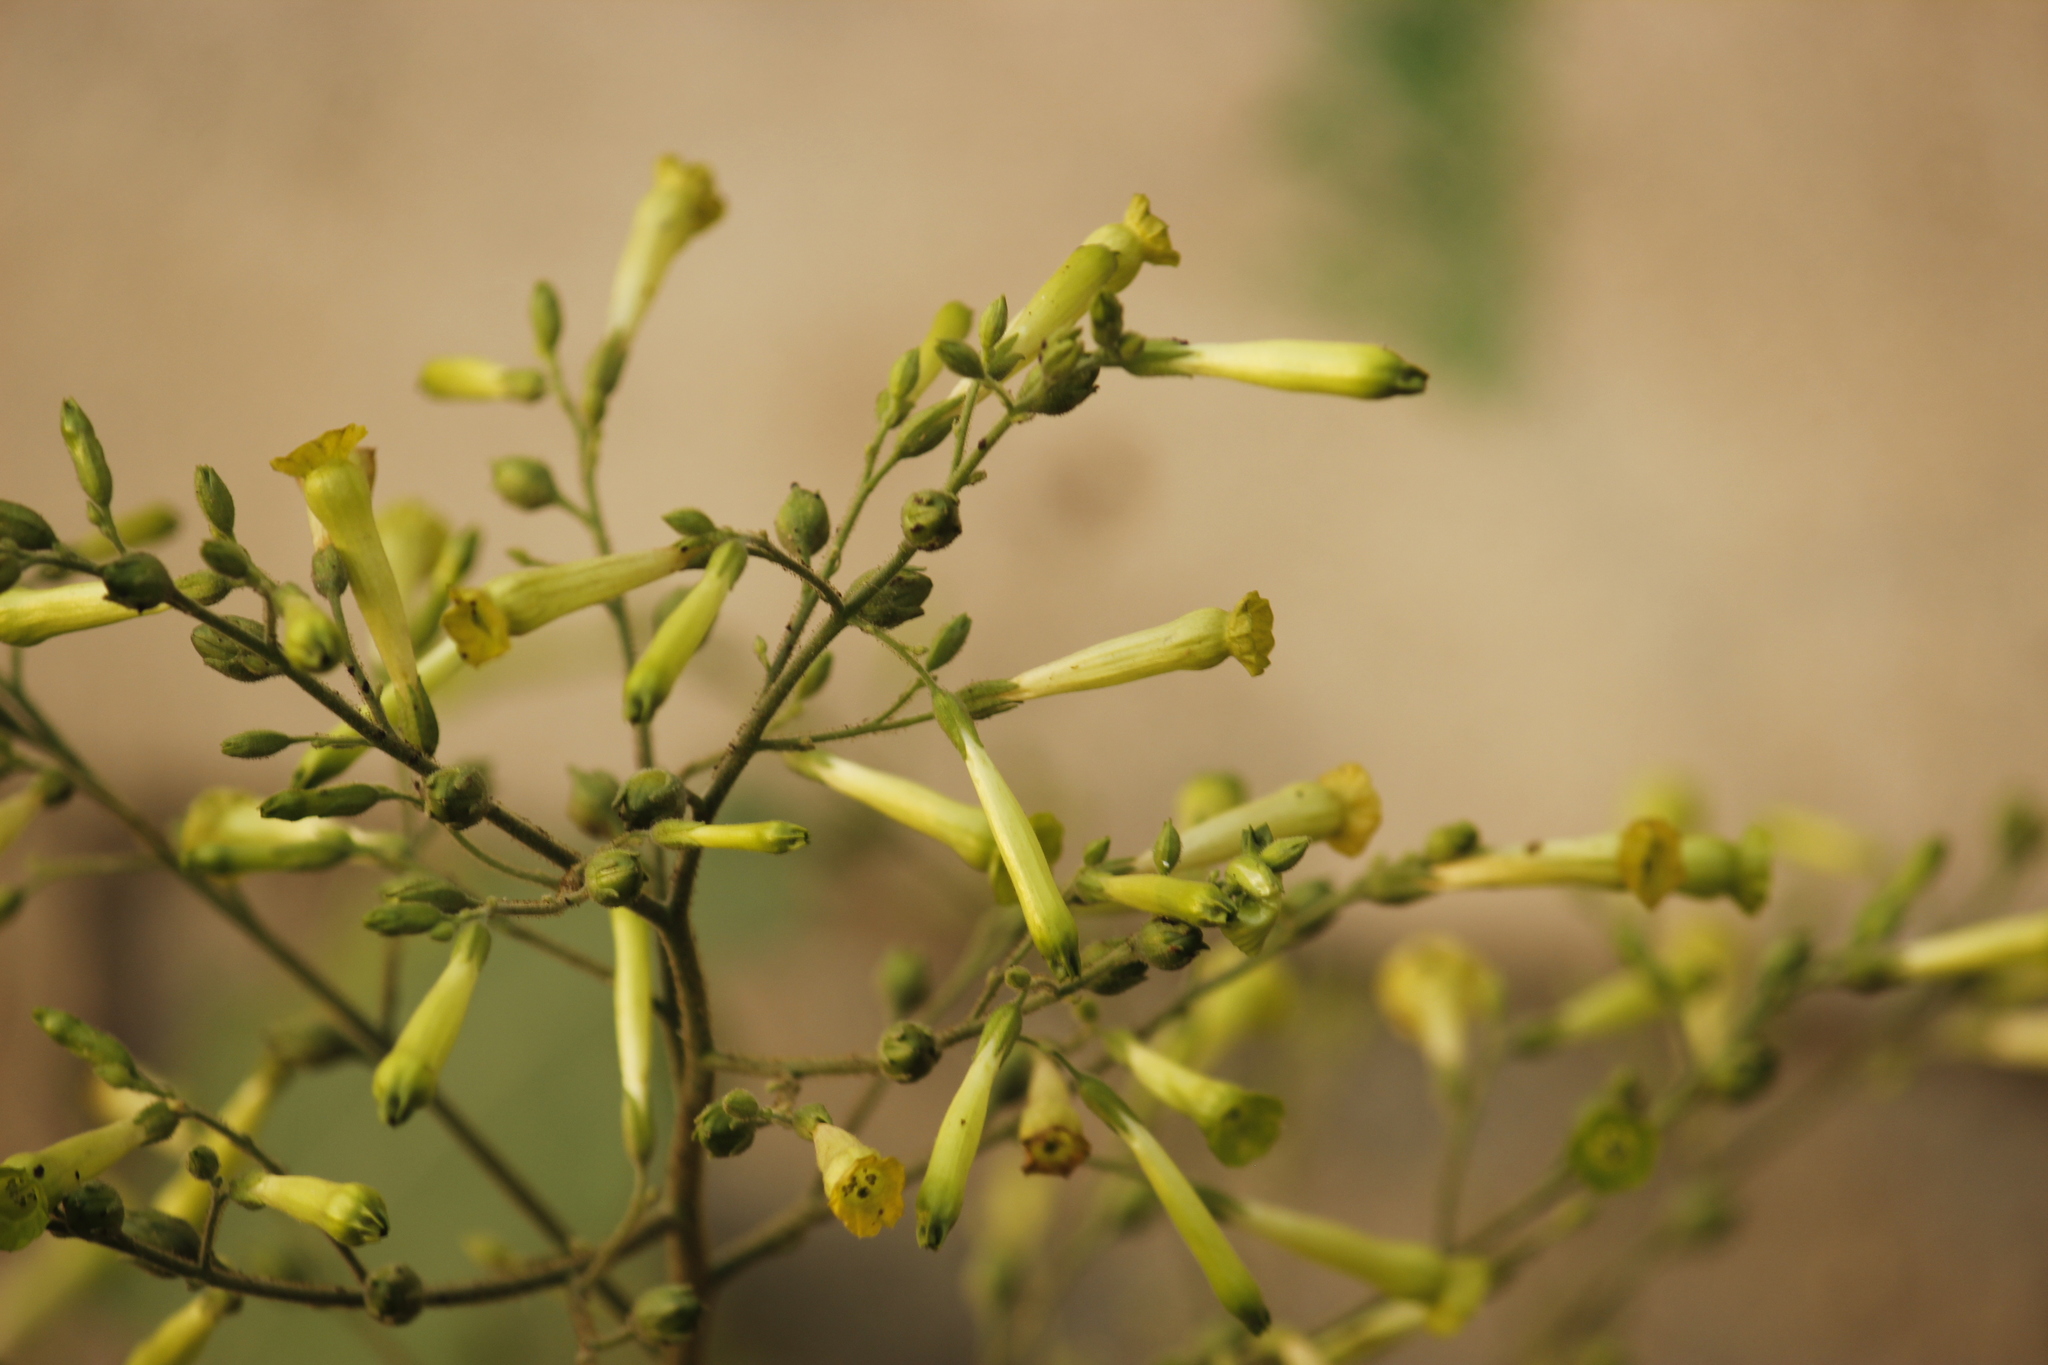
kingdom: Plantae
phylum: Tracheophyta
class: Magnoliopsida
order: Solanales
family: Solanaceae
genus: Nicotiana
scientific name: Nicotiana paniculata
